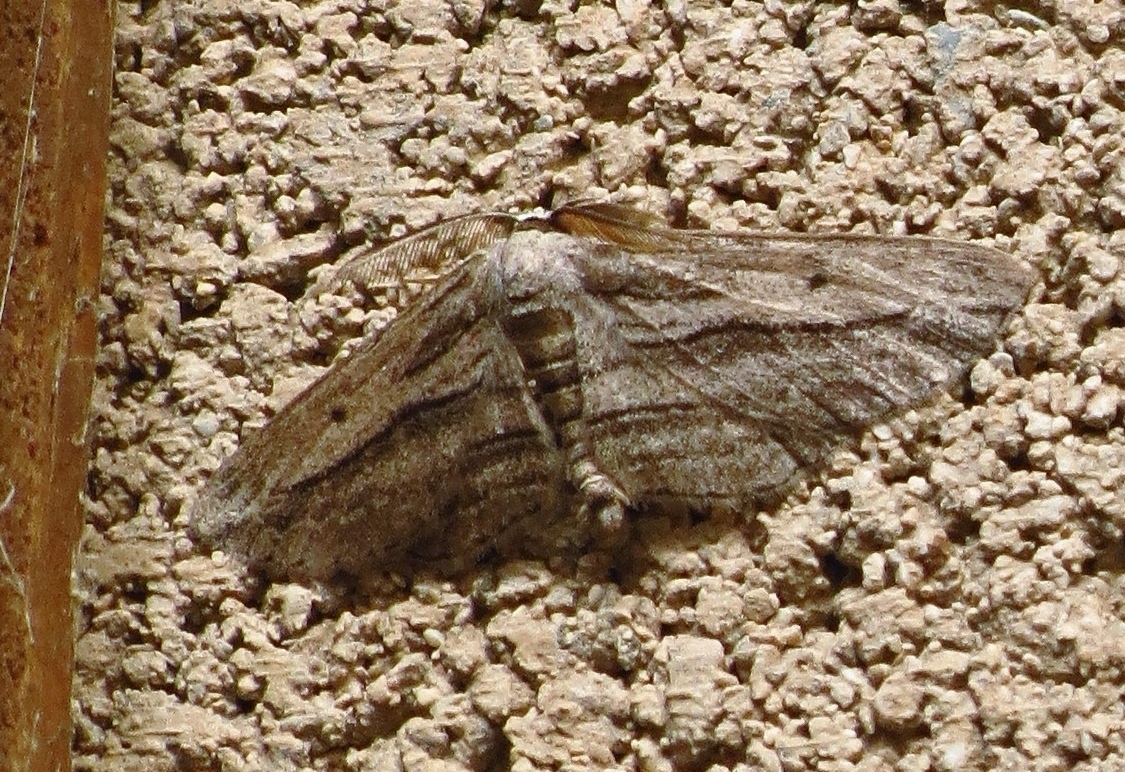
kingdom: Animalia
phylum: Arthropoda
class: Insecta
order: Lepidoptera
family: Geometridae
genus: Glena
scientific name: Glena quinquelinearia
